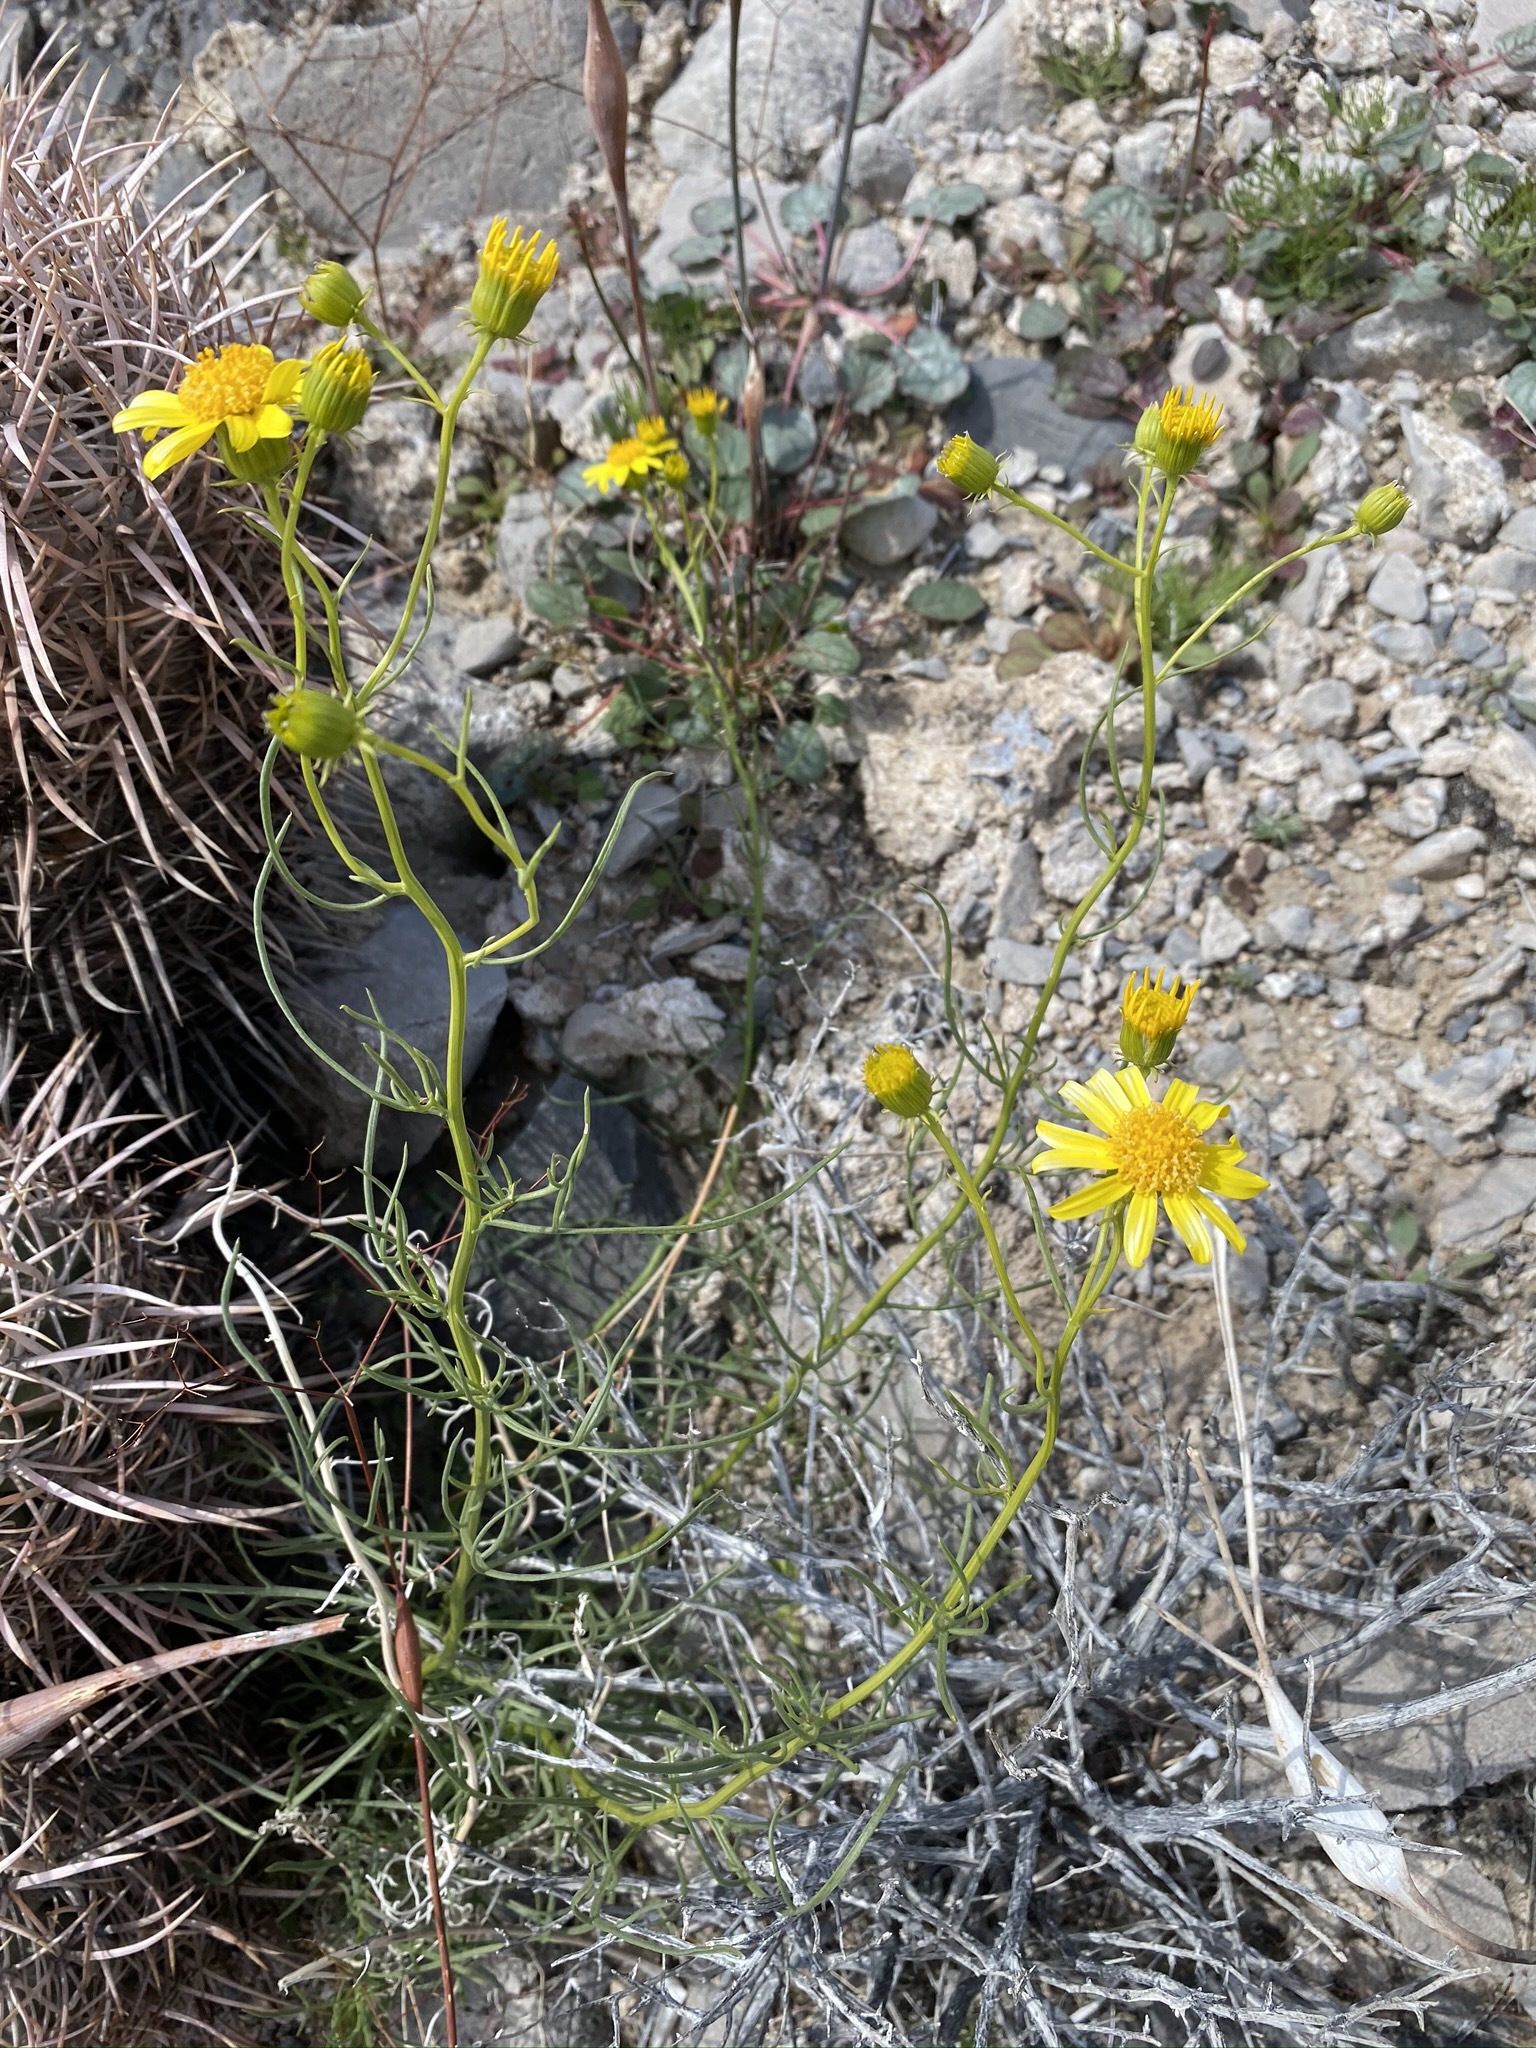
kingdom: Plantae
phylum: Tracheophyta
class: Magnoliopsida
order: Asterales
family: Asteraceae
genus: Senecio
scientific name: Senecio flaccidus
